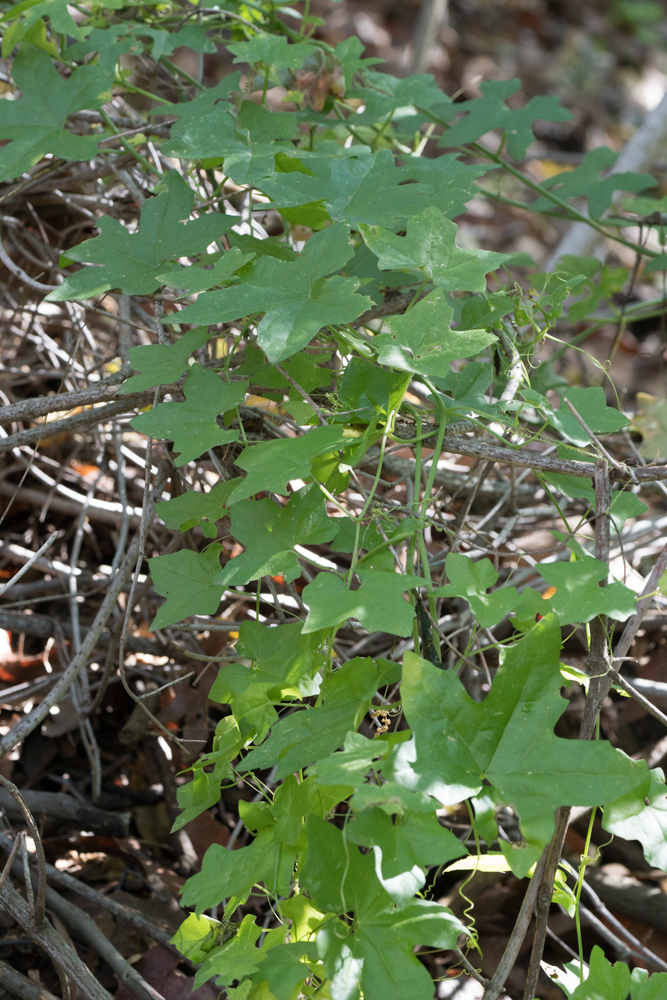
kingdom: Plantae
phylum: Tracheophyta
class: Magnoliopsida
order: Cucurbitales
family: Cucurbitaceae
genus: Marah
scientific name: Marah macrocarpa
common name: Cucamonga manroot
